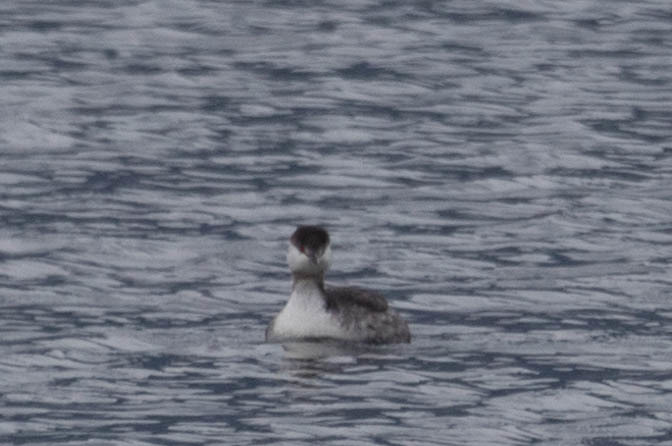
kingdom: Animalia
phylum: Chordata
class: Aves
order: Podicipediformes
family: Podicipedidae
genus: Podiceps
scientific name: Podiceps auritus
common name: Horned grebe
